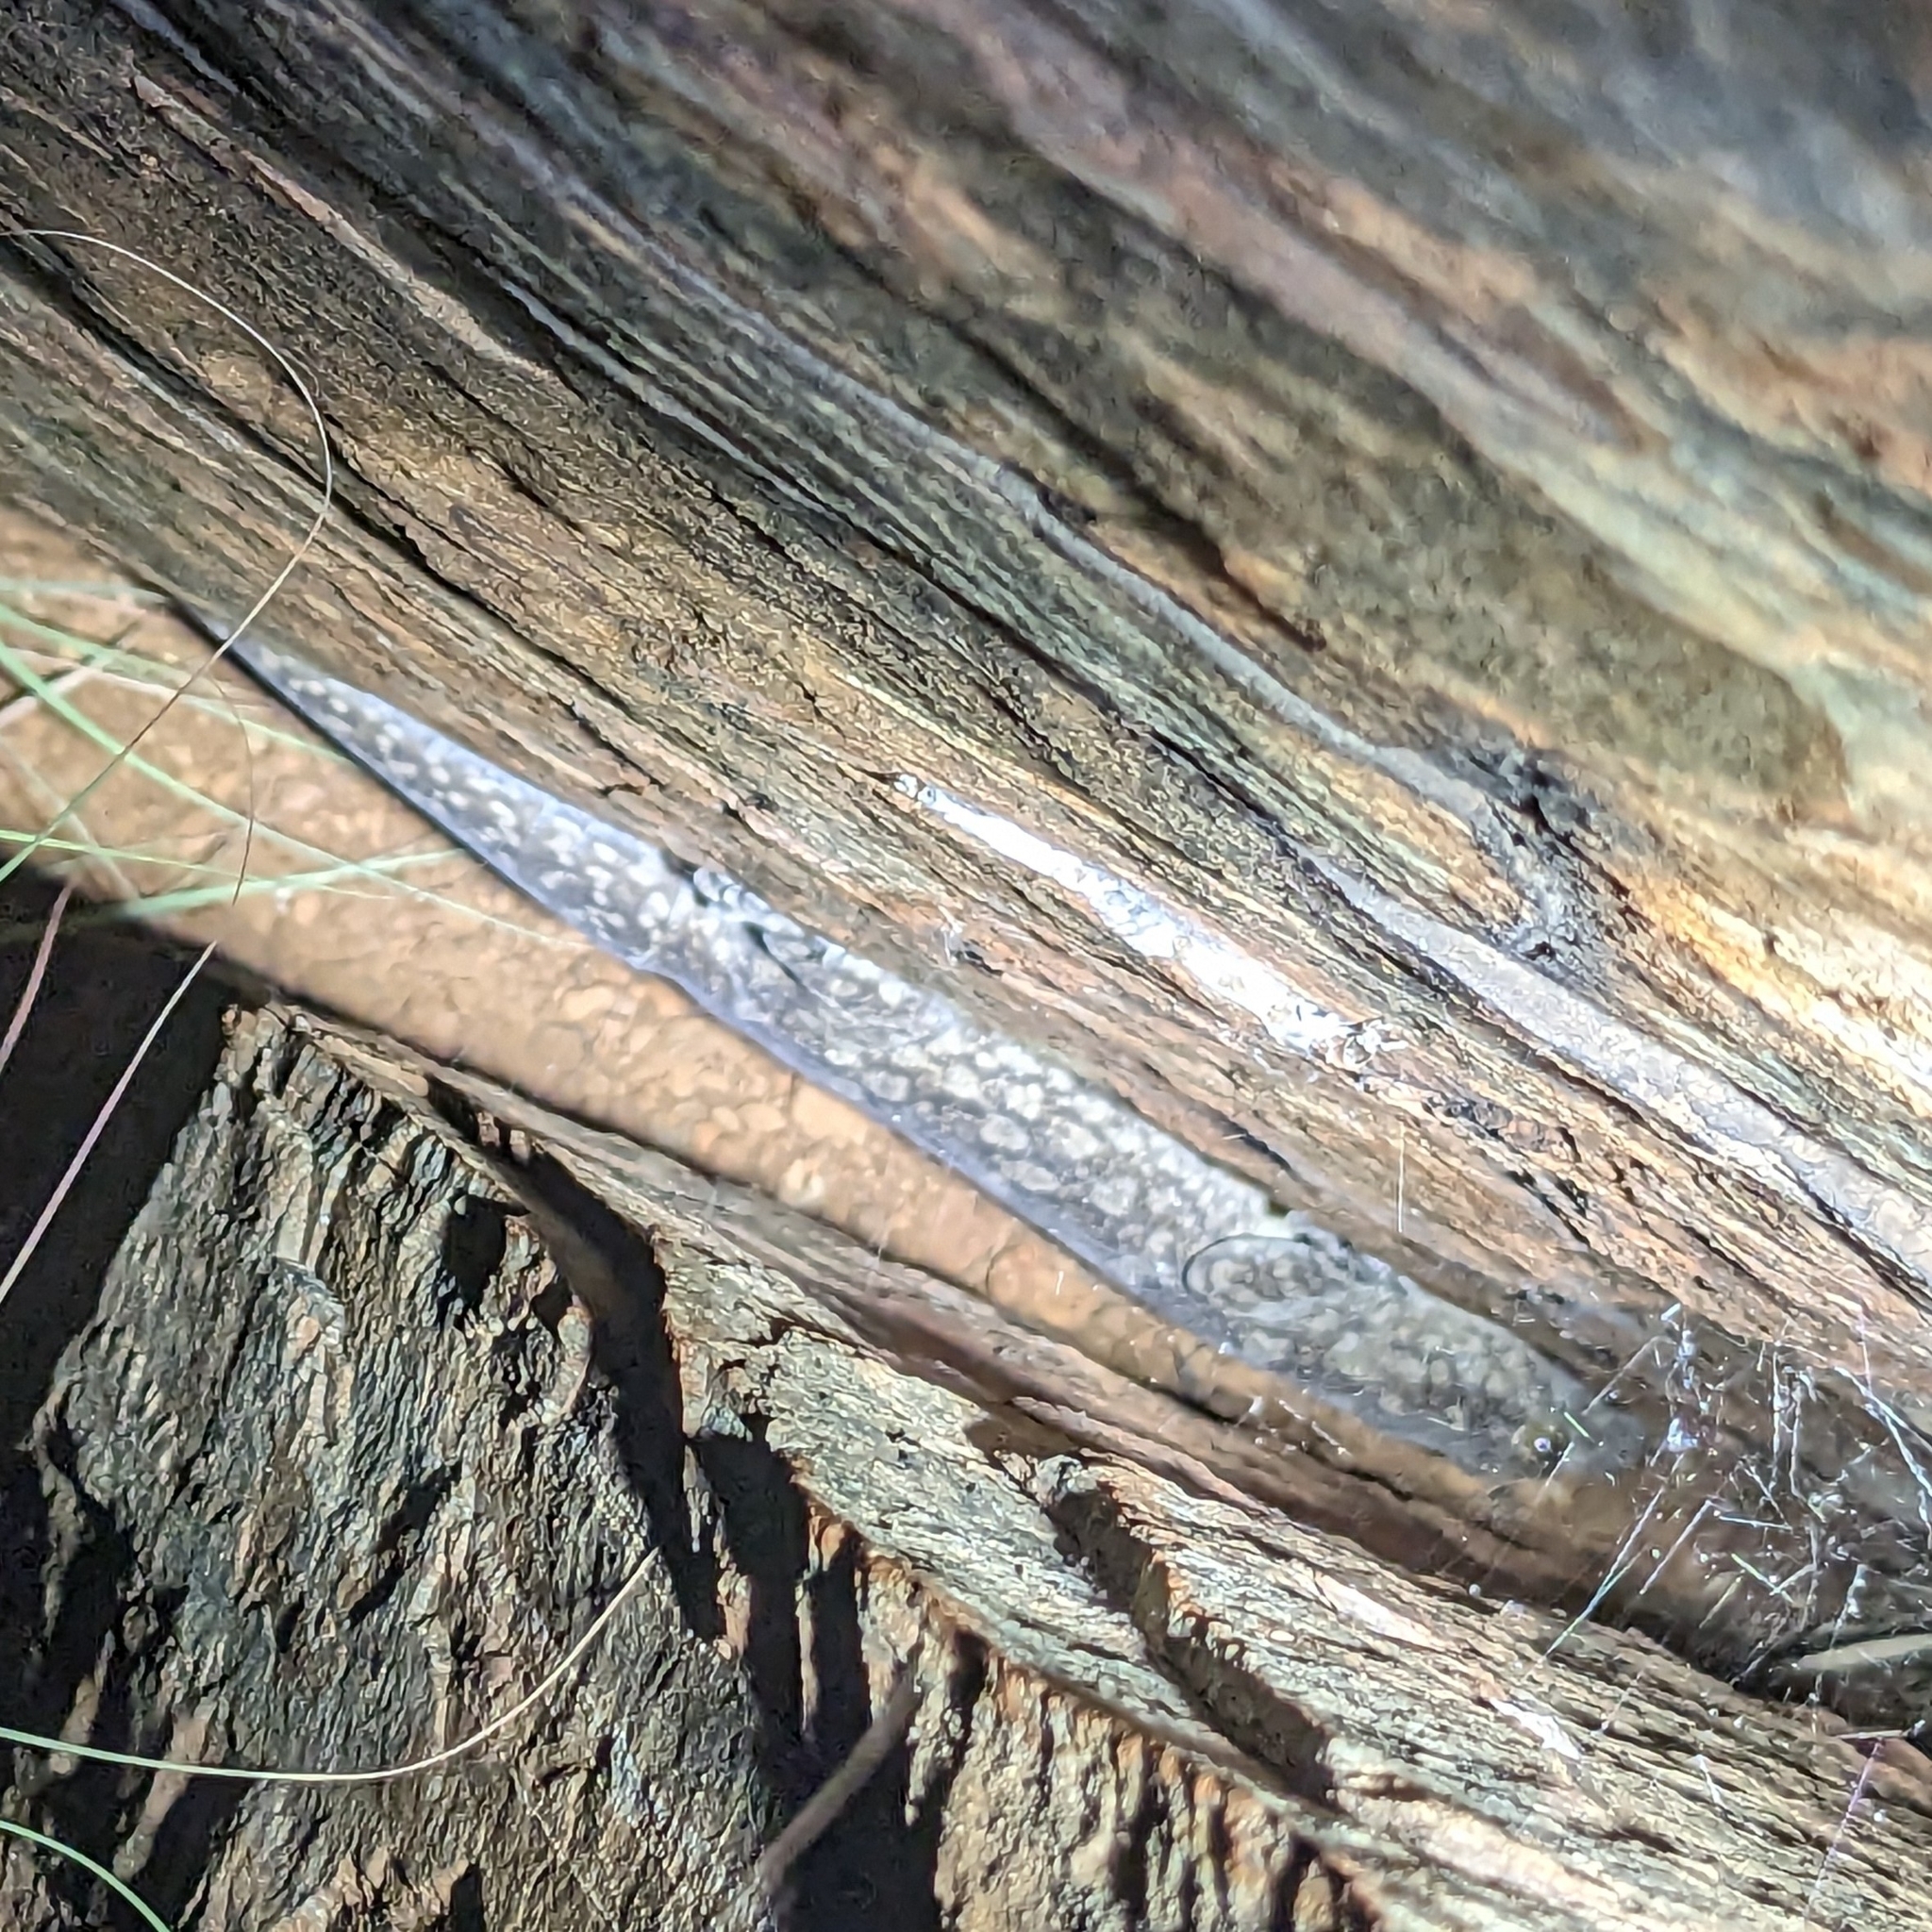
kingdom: Animalia
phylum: Chordata
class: Squamata
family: Gekkonidae
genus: Hemidactylus
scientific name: Hemidactylus leschenaultii
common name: Leschenault's leaf-toed gecko
